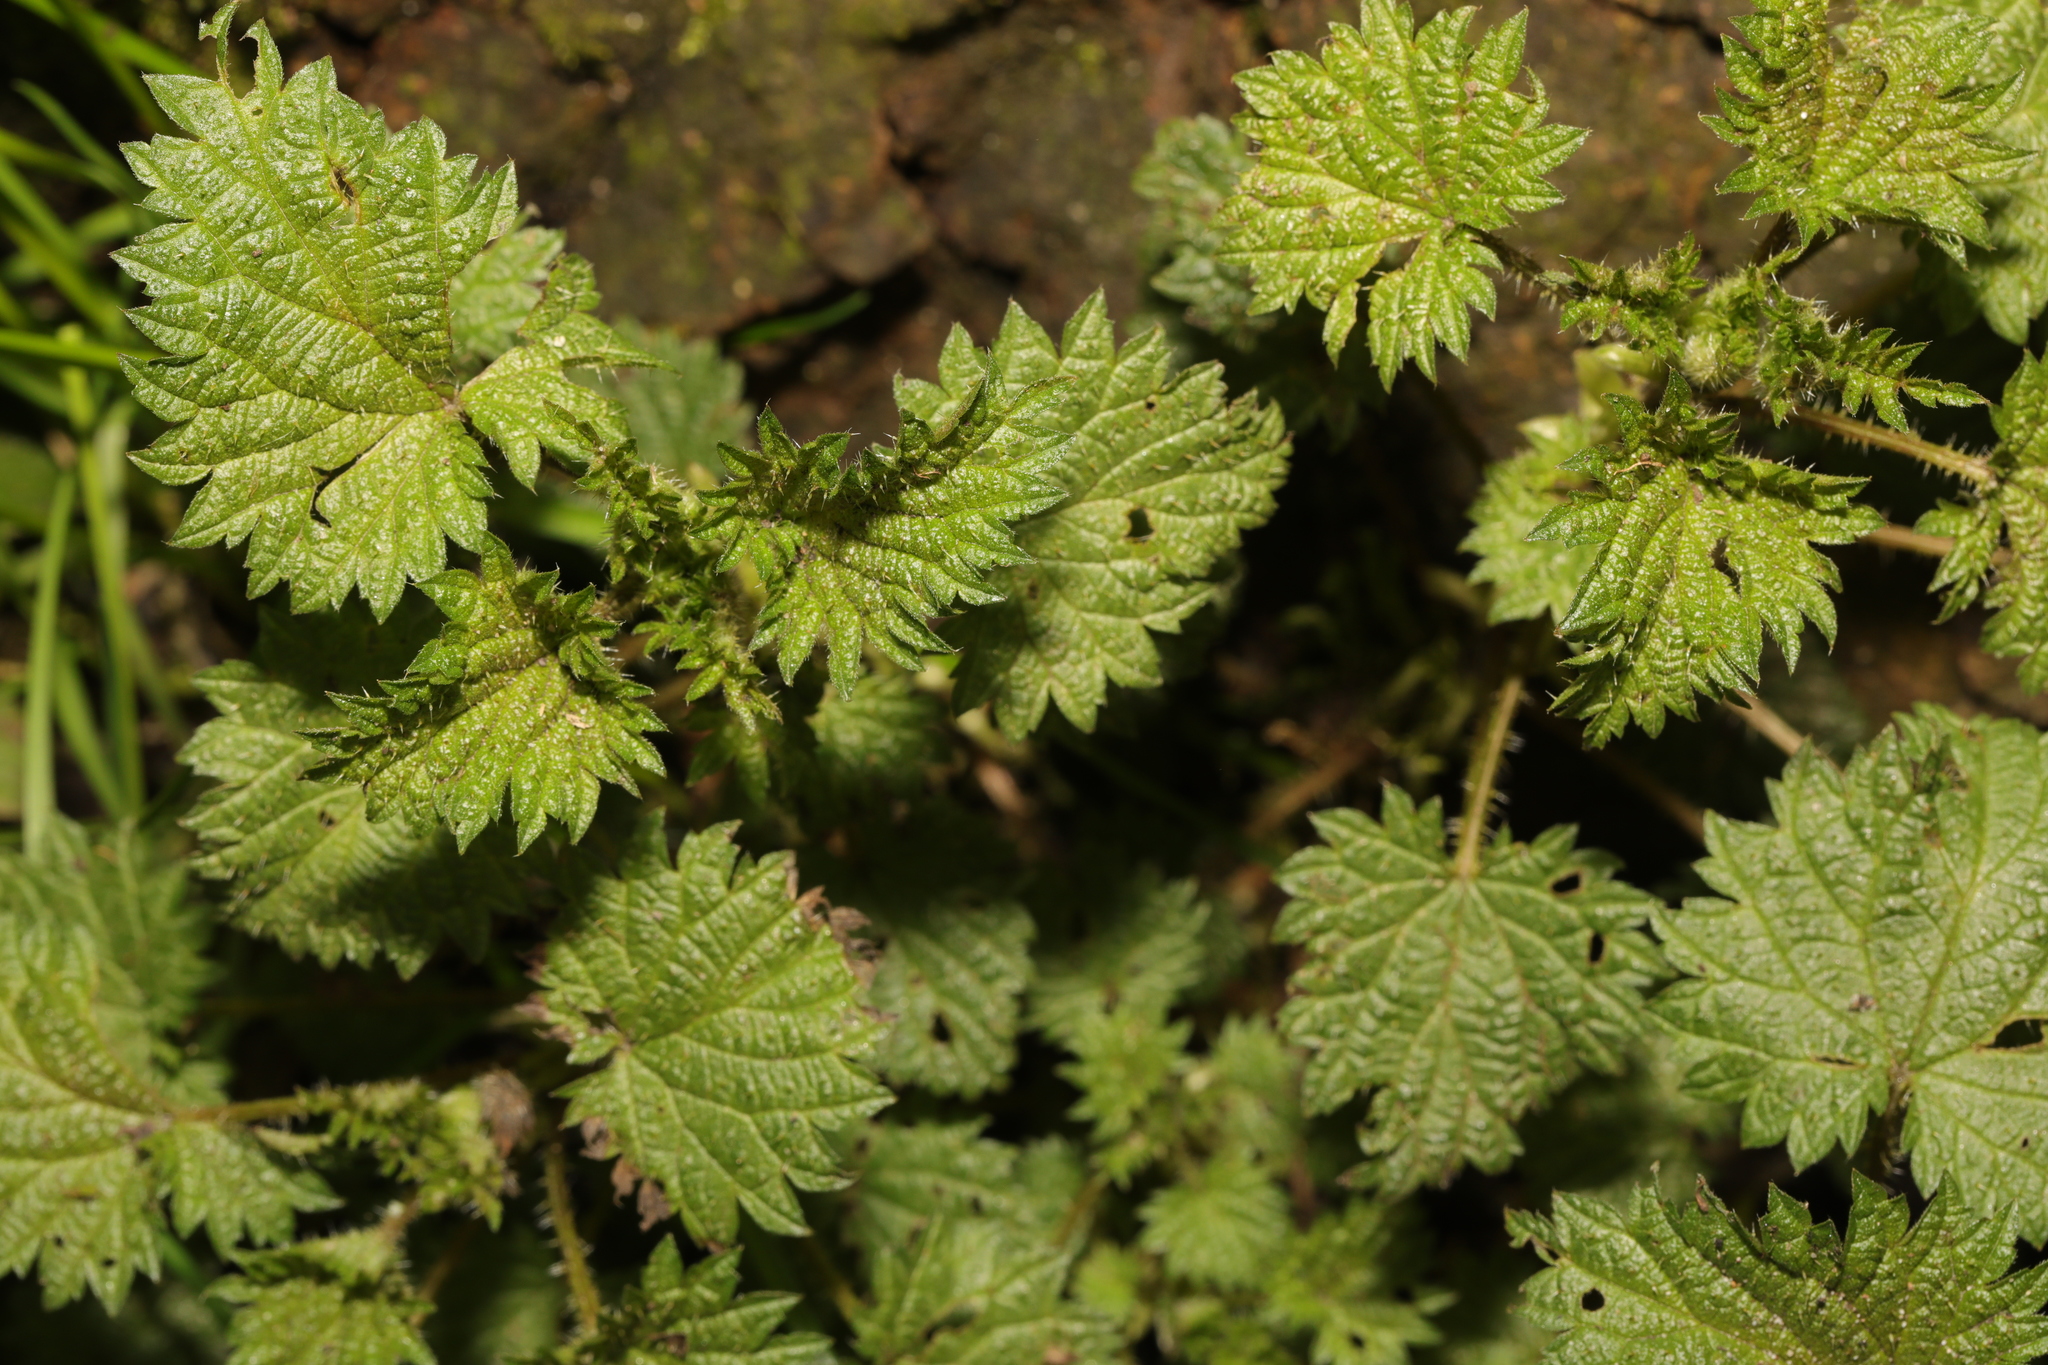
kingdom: Plantae
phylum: Tracheophyta
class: Magnoliopsida
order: Rosales
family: Urticaceae
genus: Urtica
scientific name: Urtica urens
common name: Dwarf nettle
